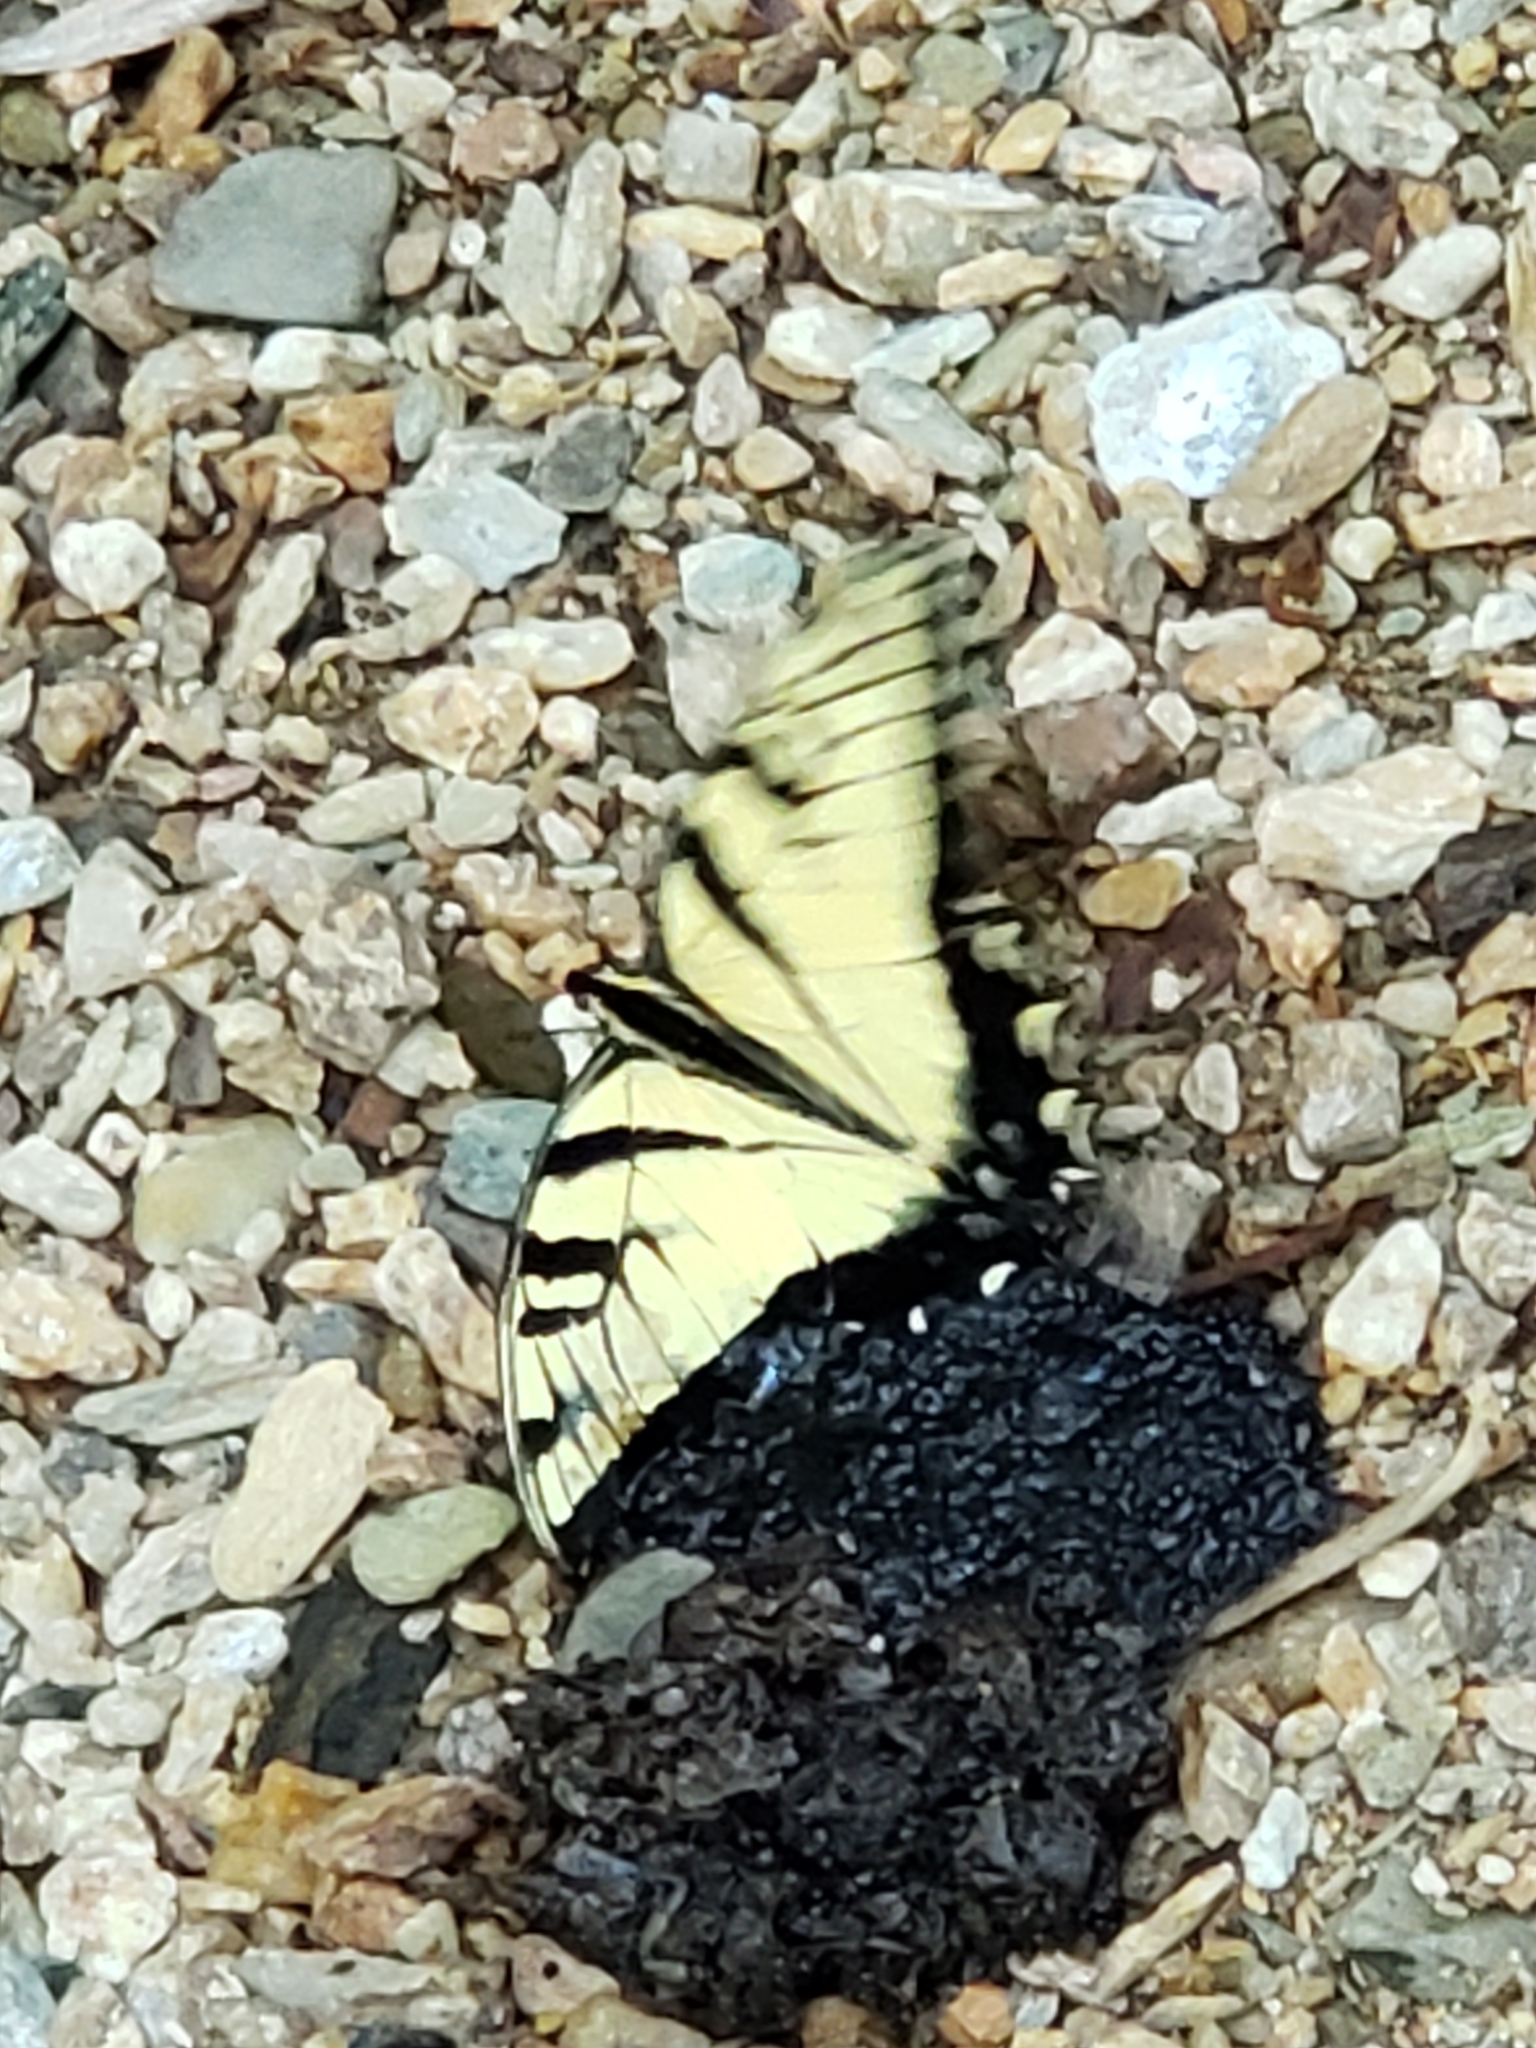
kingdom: Animalia
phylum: Arthropoda
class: Insecta
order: Lepidoptera
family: Papilionidae
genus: Papilio
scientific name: Papilio glaucus
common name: Tiger swallowtail
